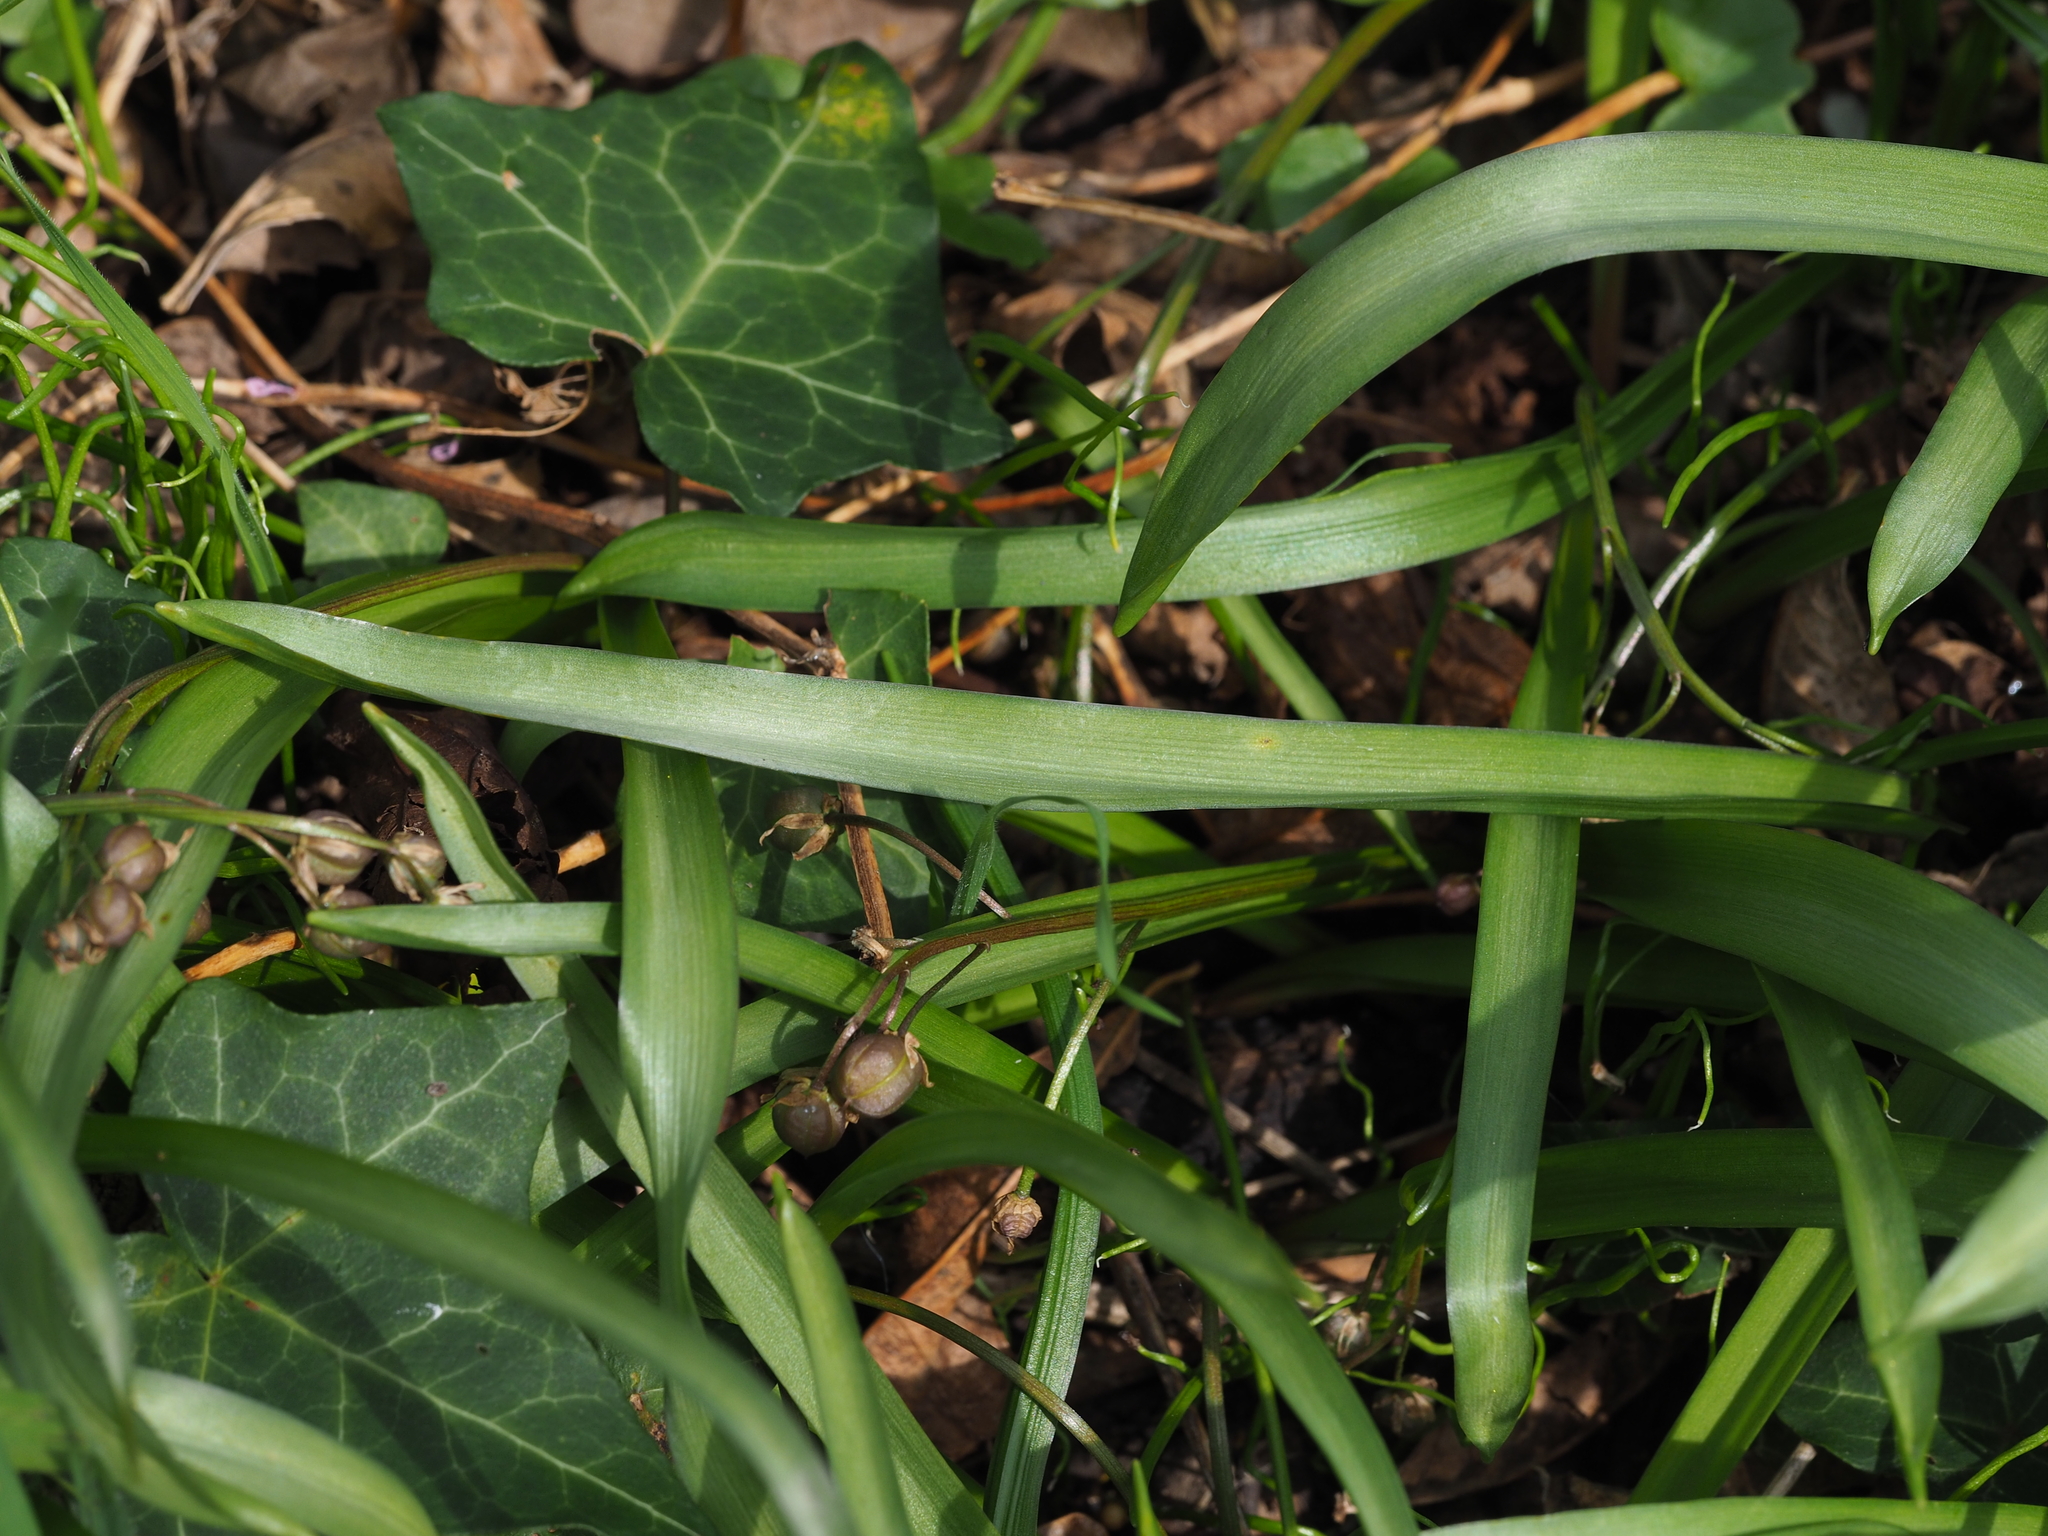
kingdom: Fungi
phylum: Basidiomycota
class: Pucciniomycetes
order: Pucciniales
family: Pucciniaceae
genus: Uromyces
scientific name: Uromyces muscari
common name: Bluebell rust
